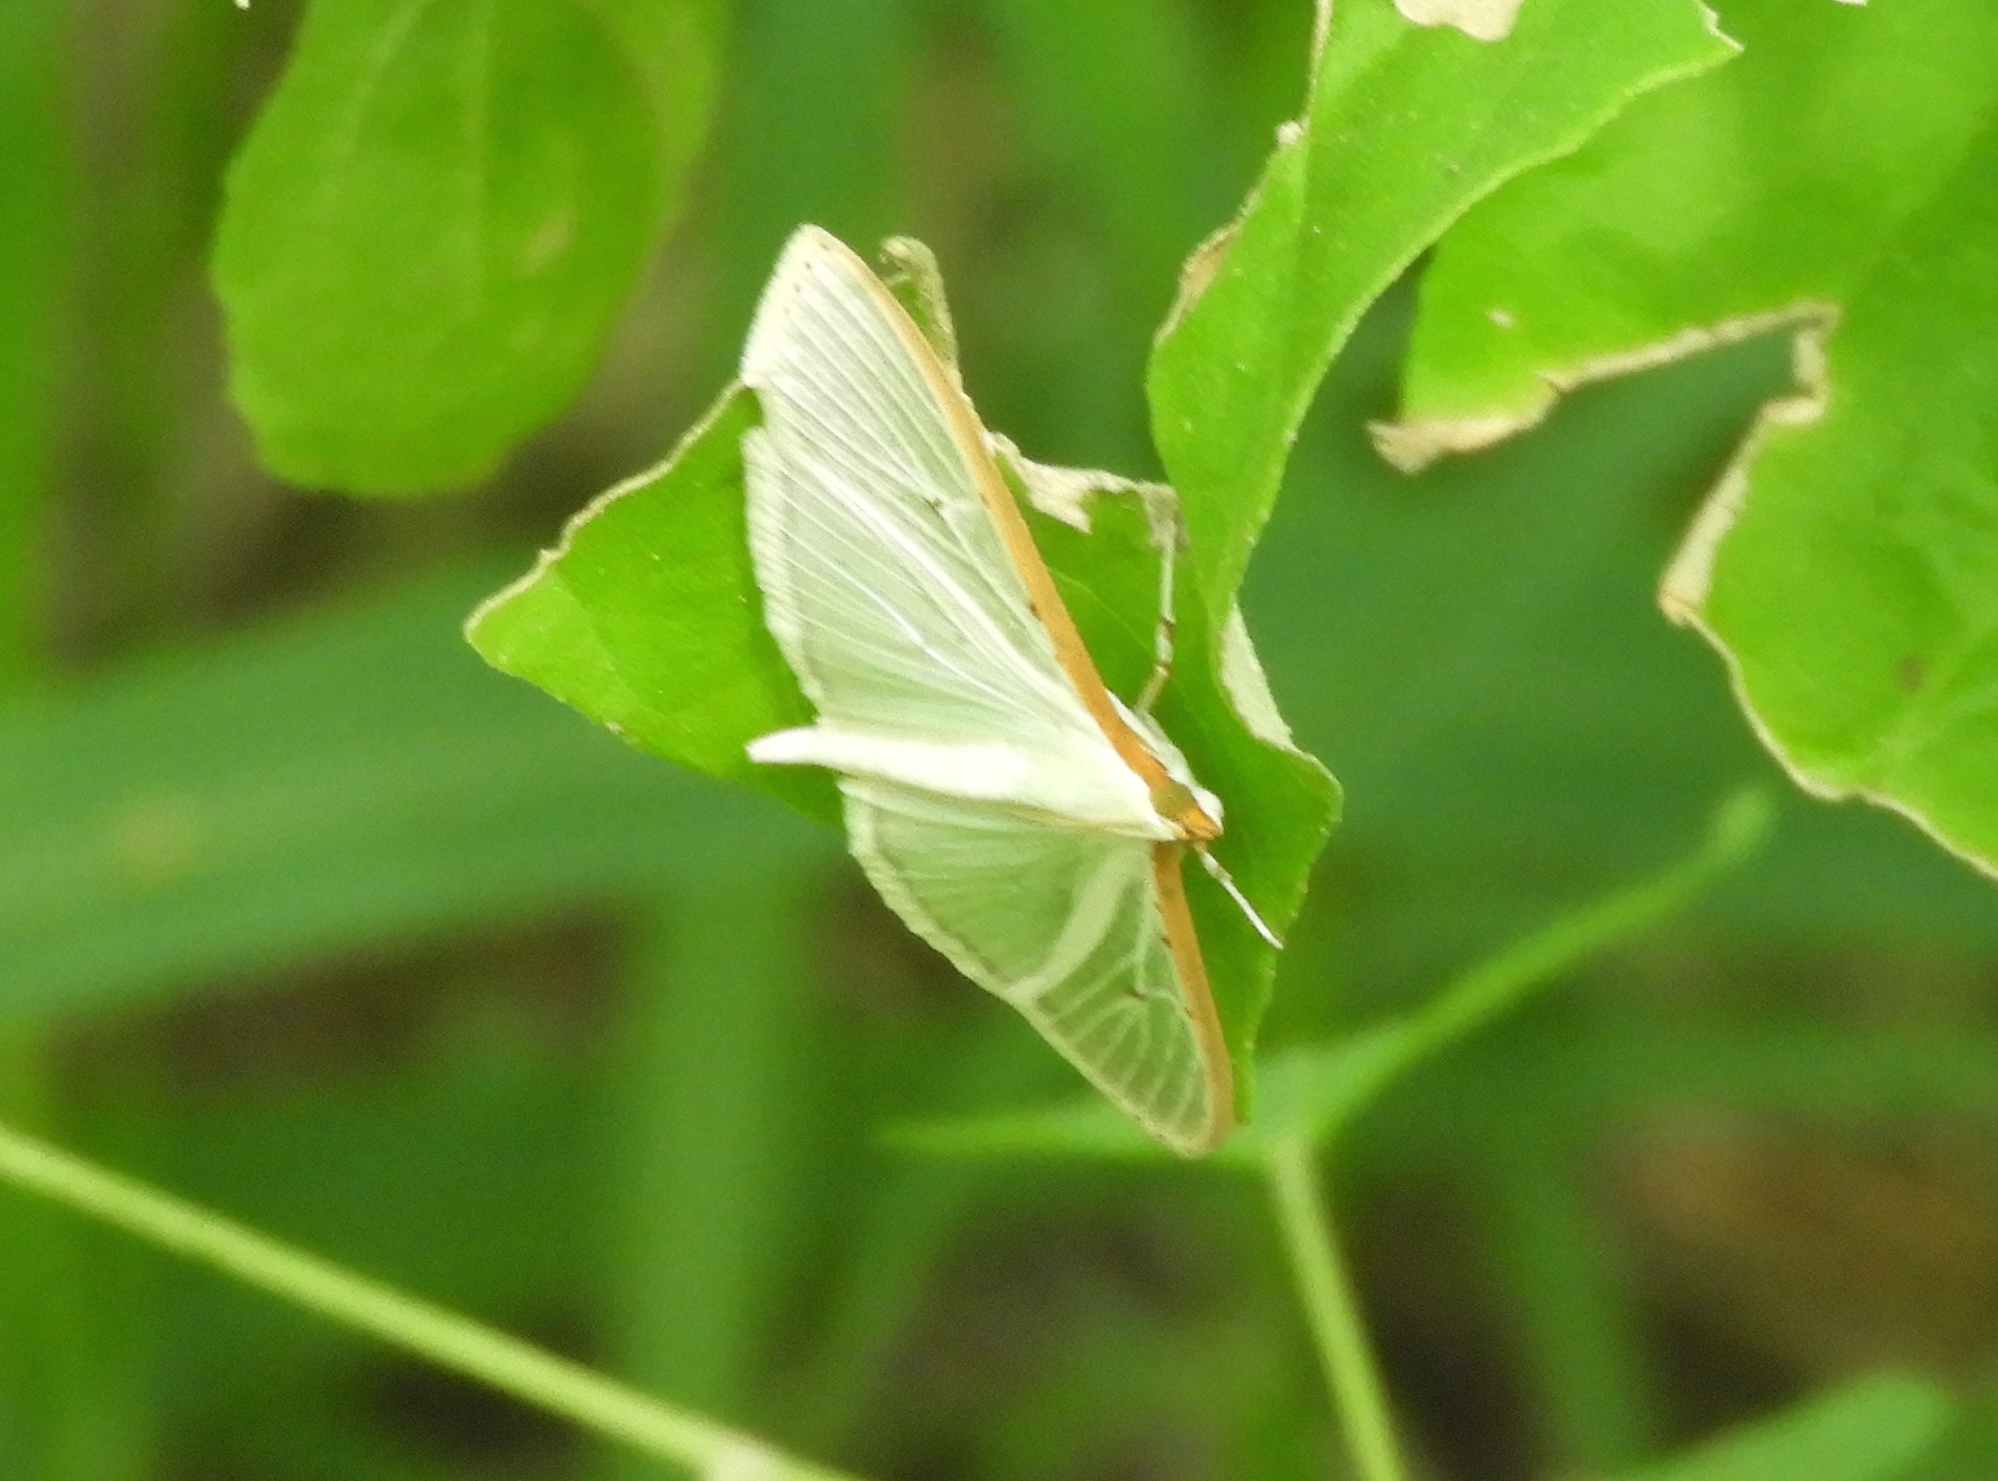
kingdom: Animalia
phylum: Arthropoda
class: Insecta
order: Lepidoptera
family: Crambidae
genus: Palpita
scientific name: Palpita quadristigmalis
